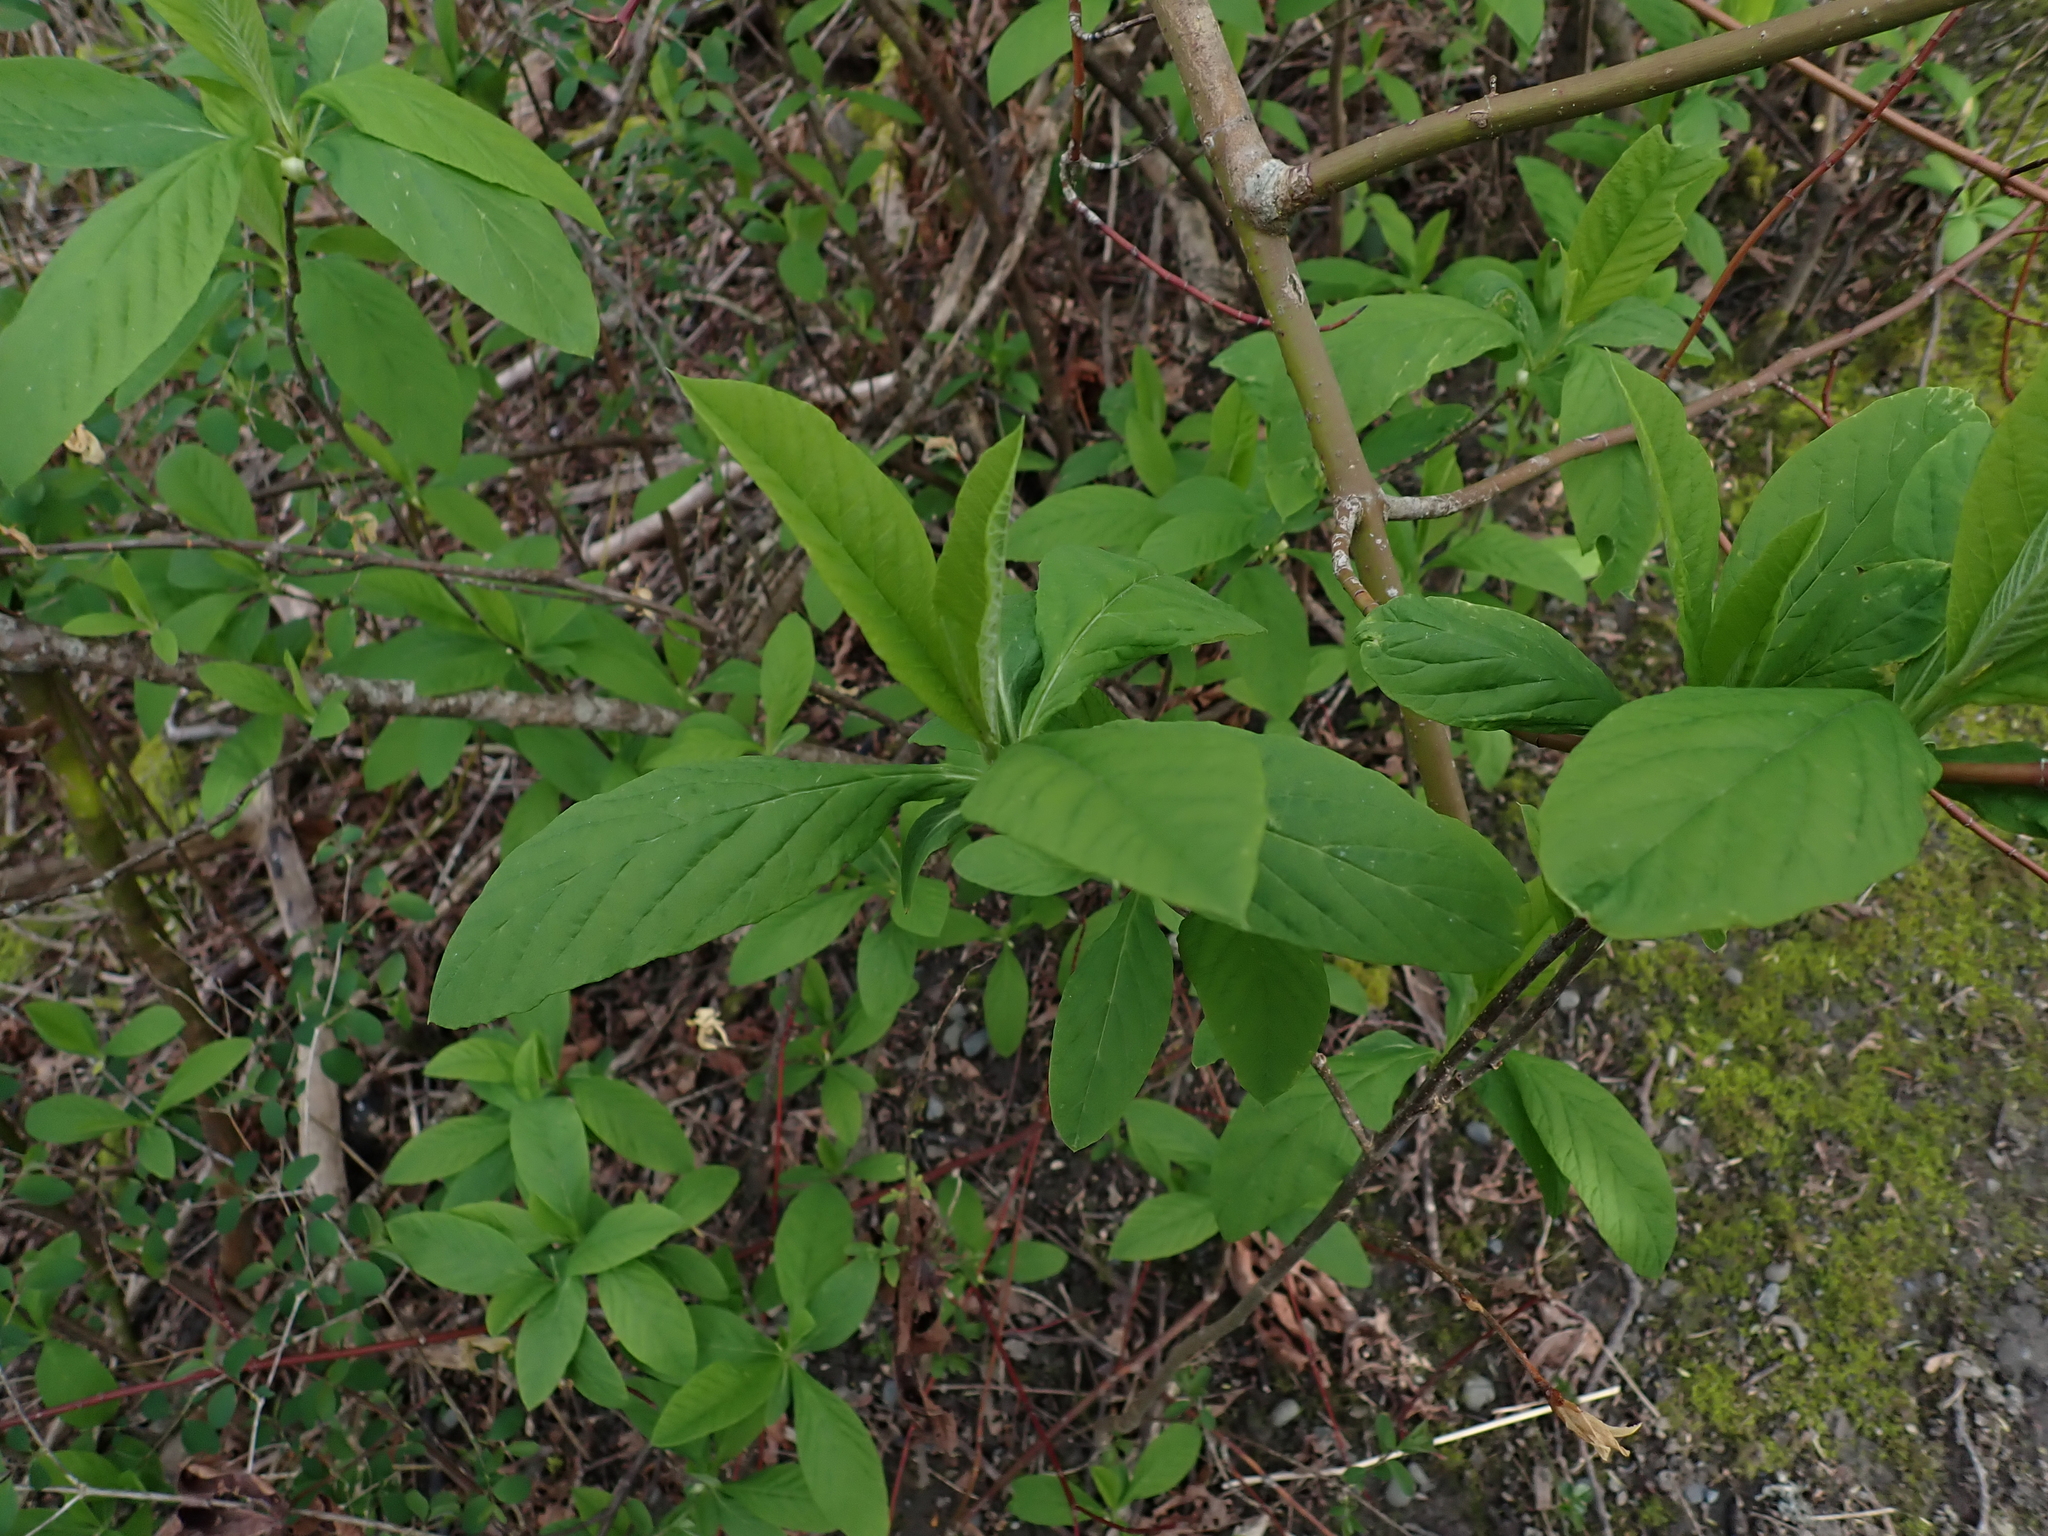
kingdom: Plantae
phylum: Tracheophyta
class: Magnoliopsida
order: Rosales
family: Rosaceae
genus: Oemleria
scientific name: Oemleria cerasiformis
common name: Osoberry
